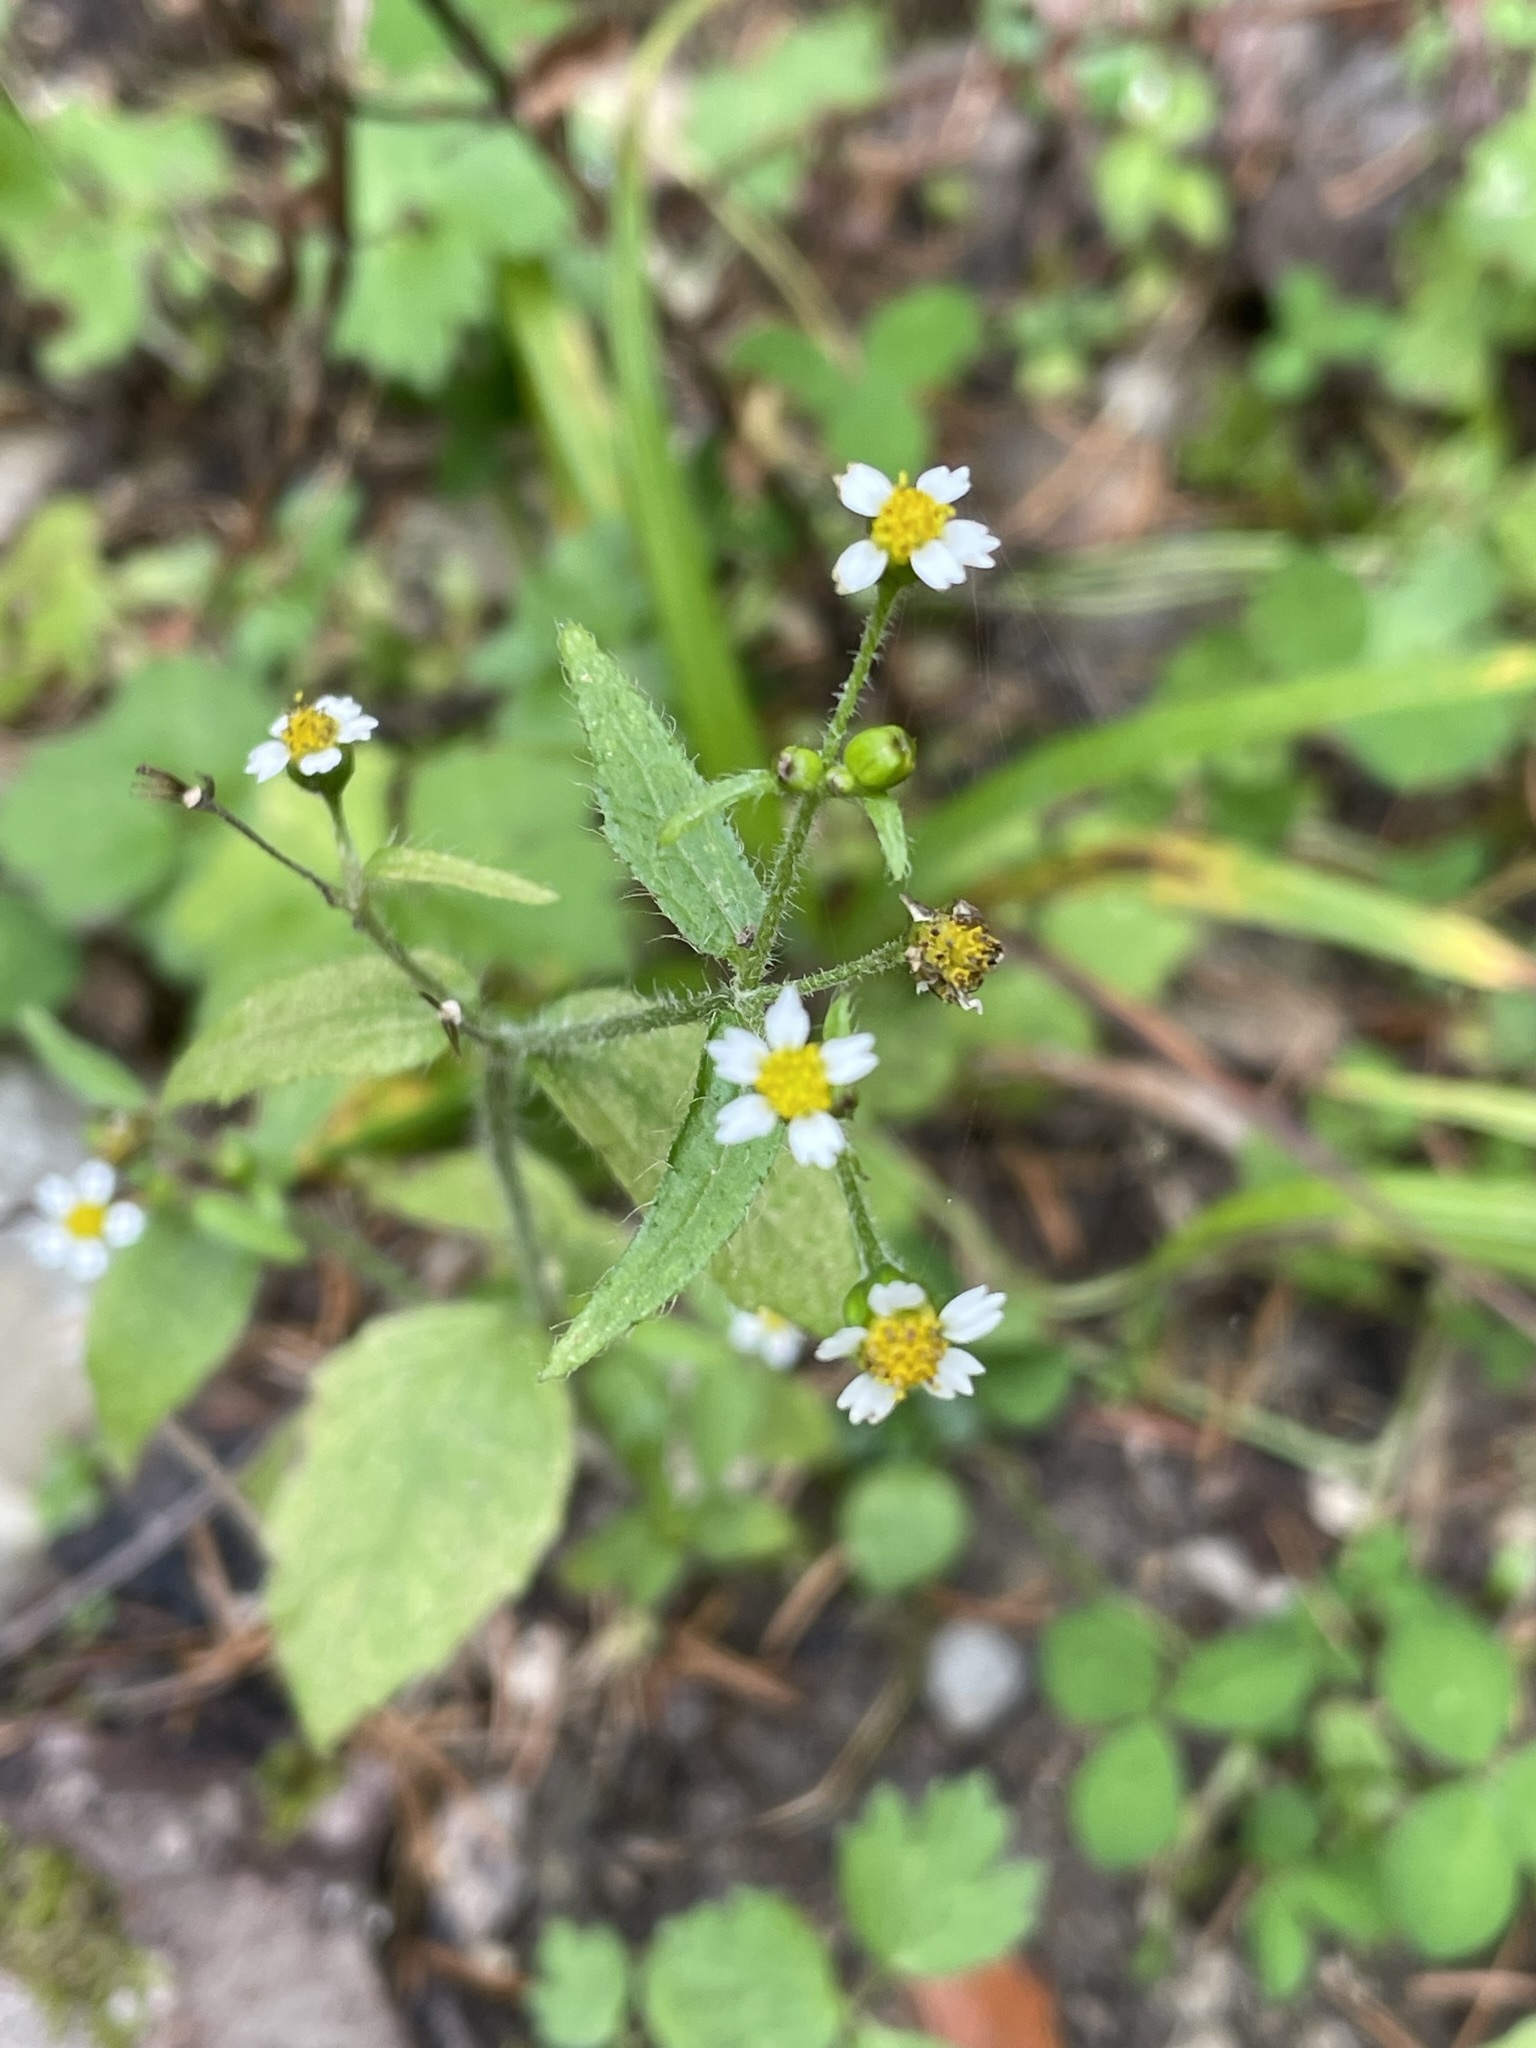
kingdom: Plantae
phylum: Tracheophyta
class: Magnoliopsida
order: Asterales
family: Asteraceae
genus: Galinsoga
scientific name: Galinsoga quadriradiata
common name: Shaggy soldier
